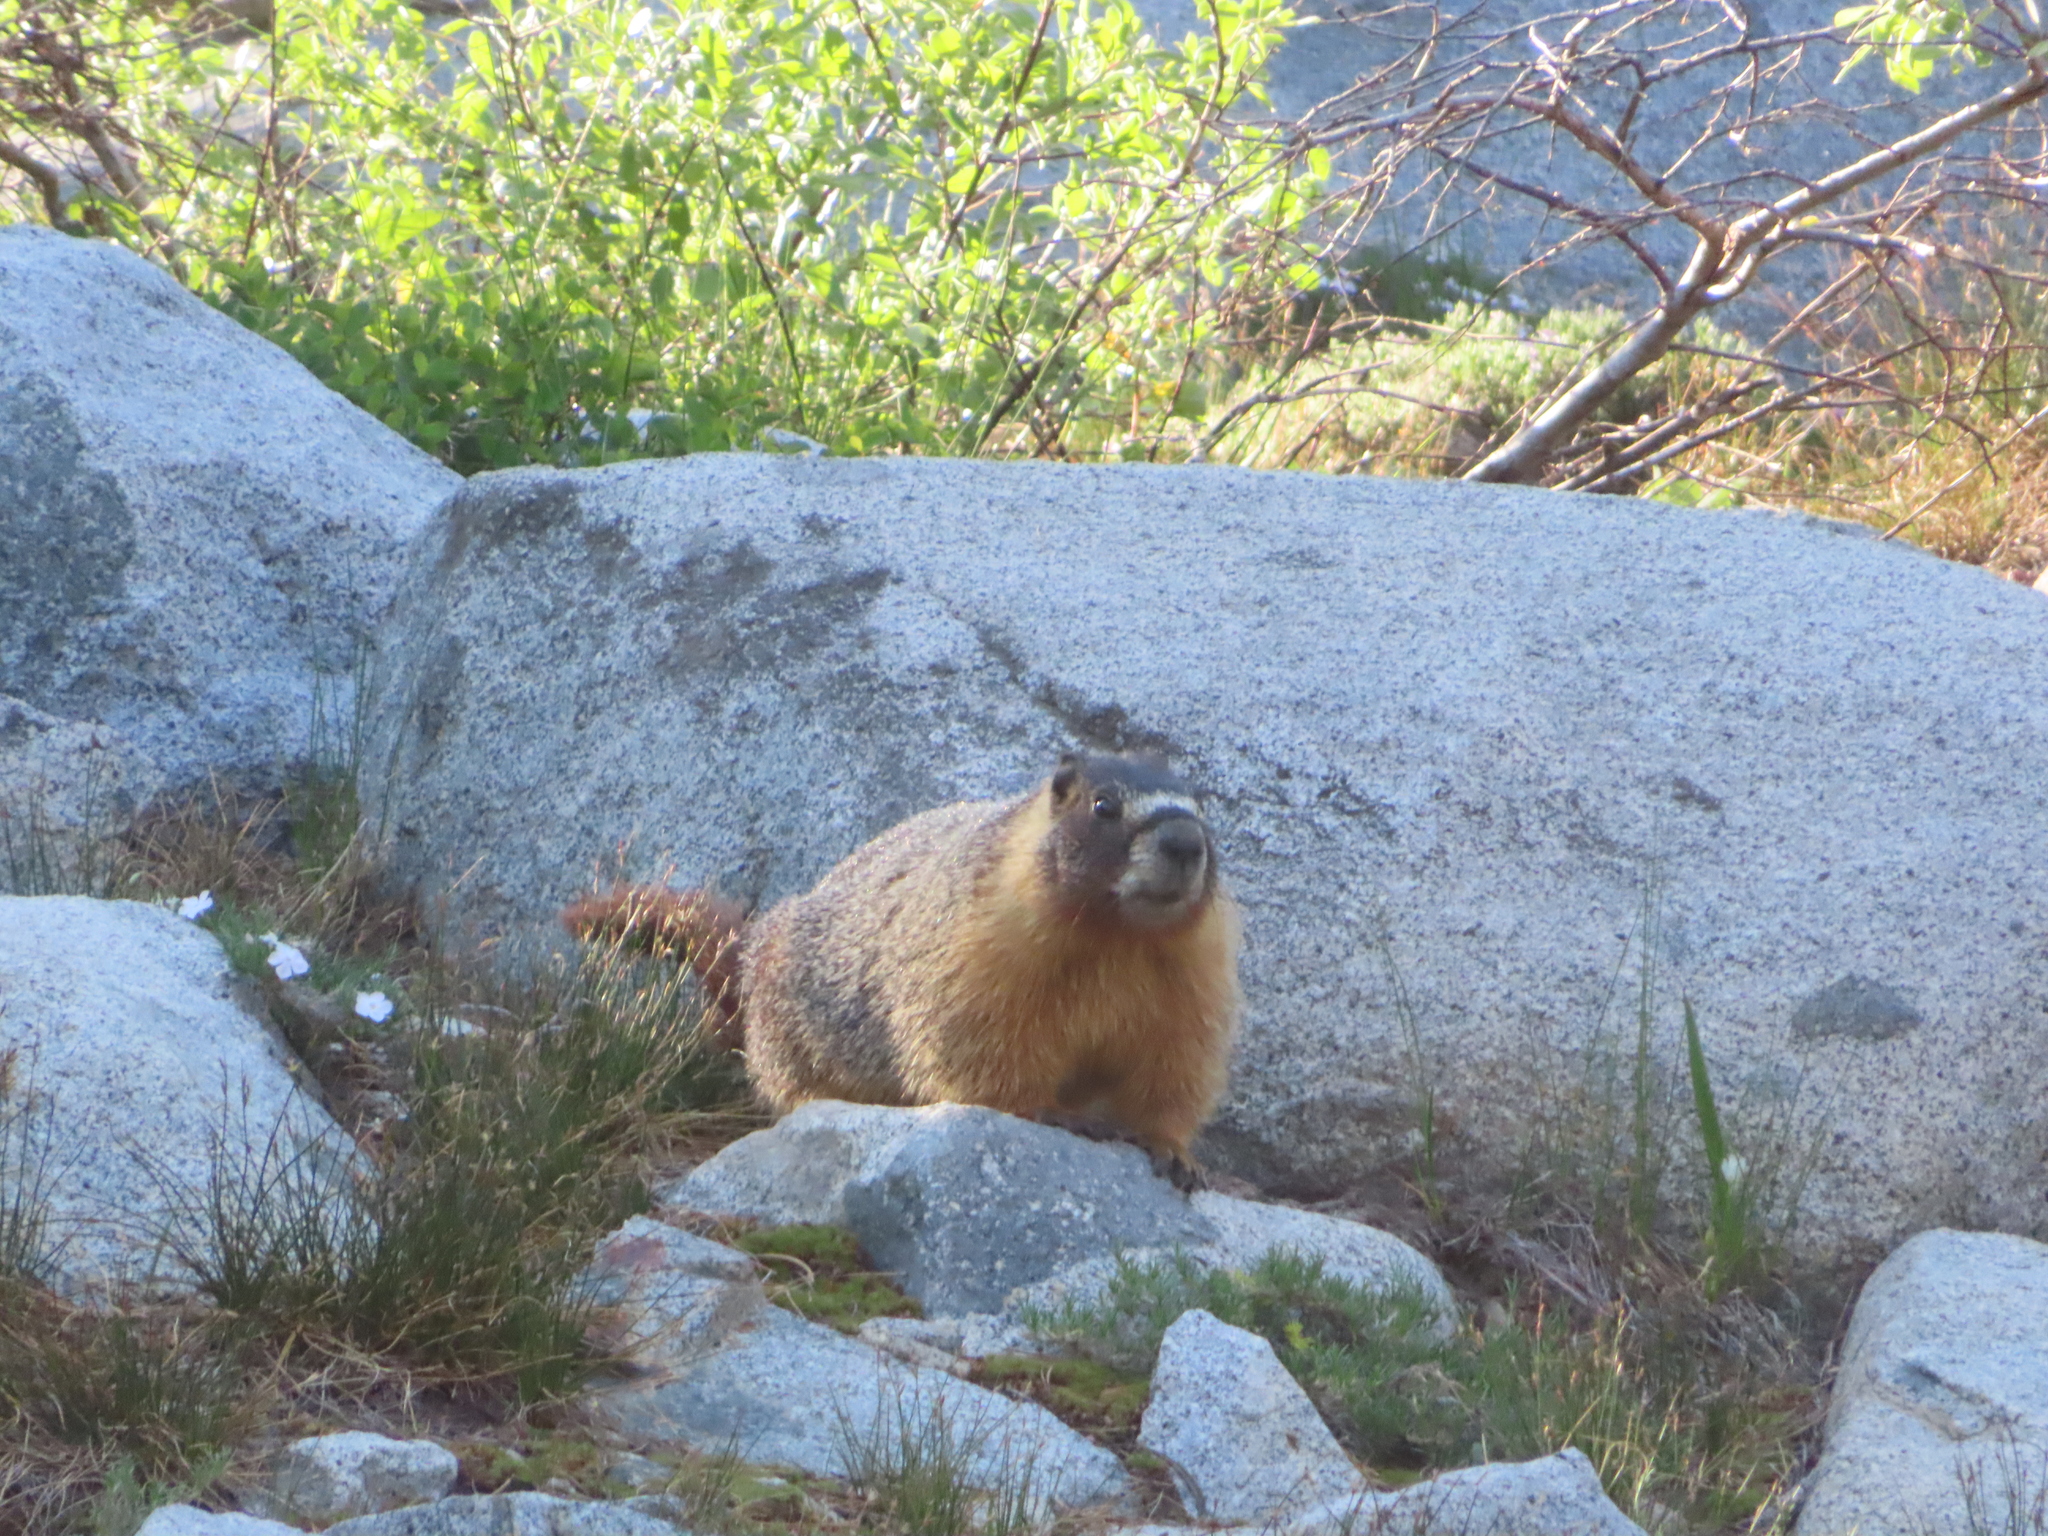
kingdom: Animalia
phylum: Chordata
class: Mammalia
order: Rodentia
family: Sciuridae
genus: Marmota
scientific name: Marmota flaviventris
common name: Yellow-bellied marmot
